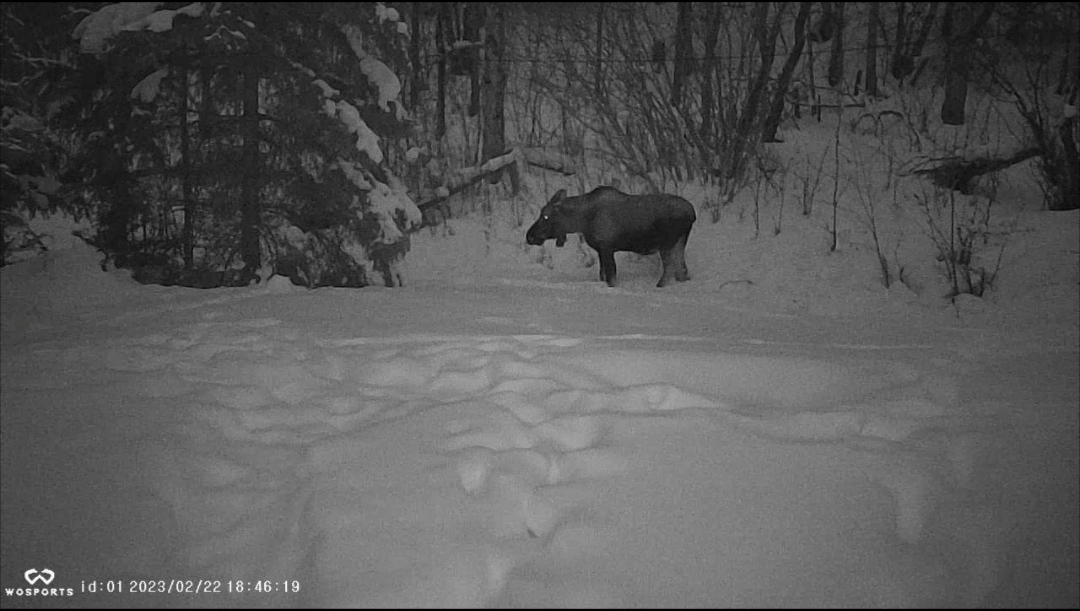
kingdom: Animalia
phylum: Chordata
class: Mammalia
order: Artiodactyla
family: Cervidae
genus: Alces
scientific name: Alces alces
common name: Moose
